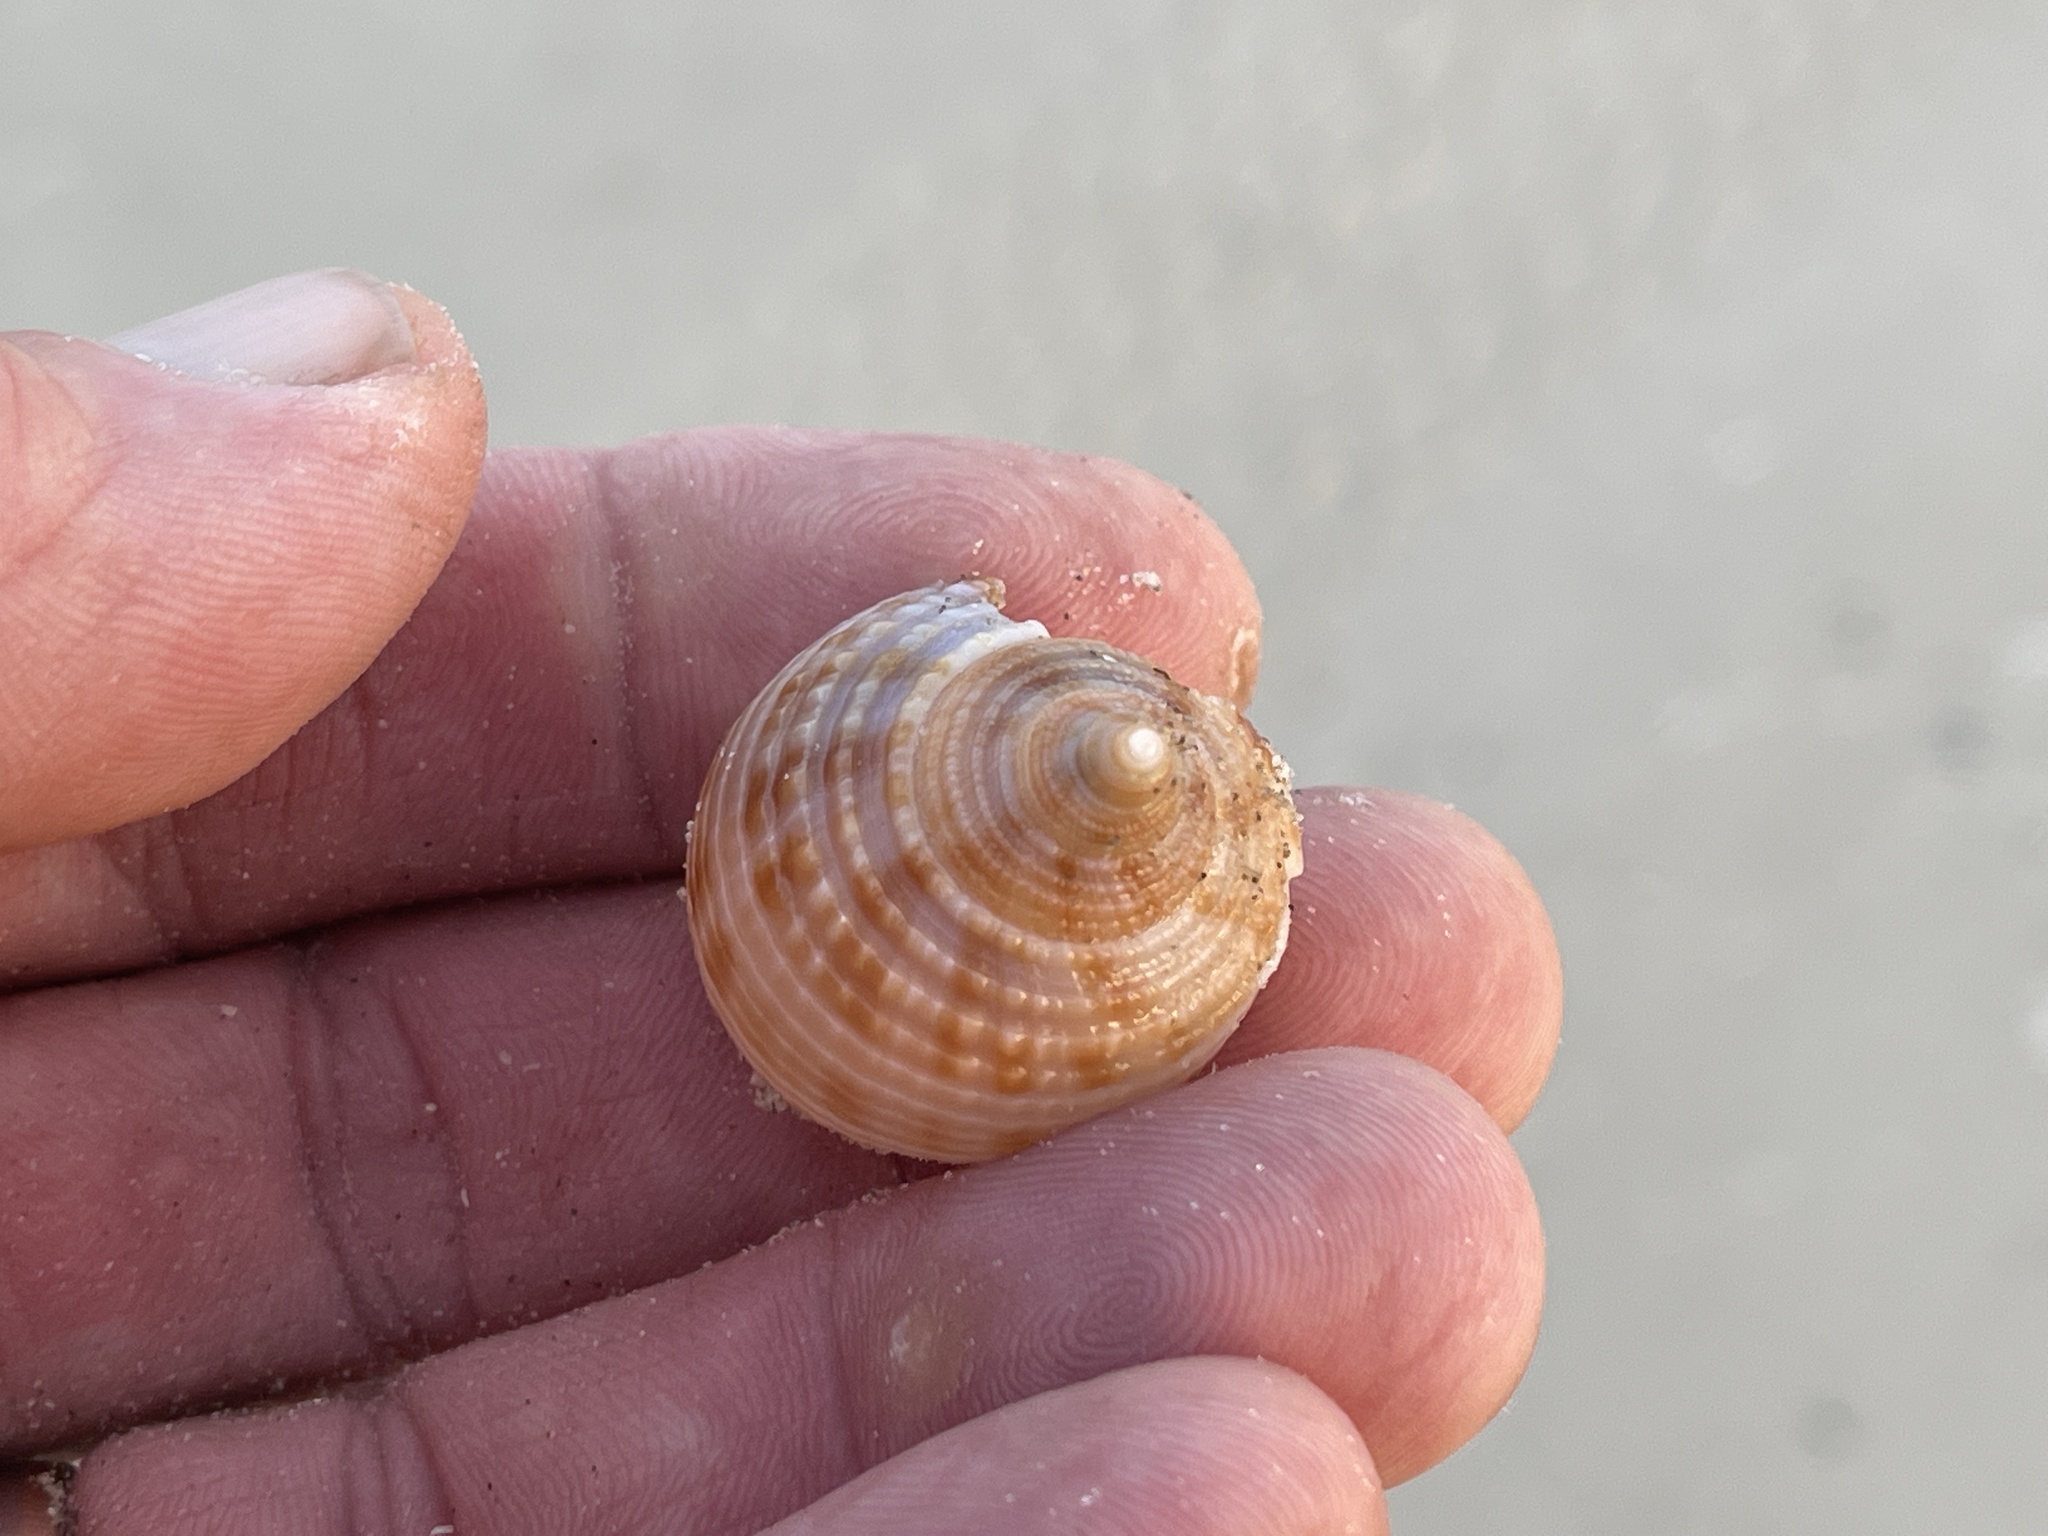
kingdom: Animalia
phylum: Mollusca
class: Gastropoda
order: Littorinimorpha
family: Cassidae
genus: Semicassis
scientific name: Semicassis granulata
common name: Scotch bonnet
